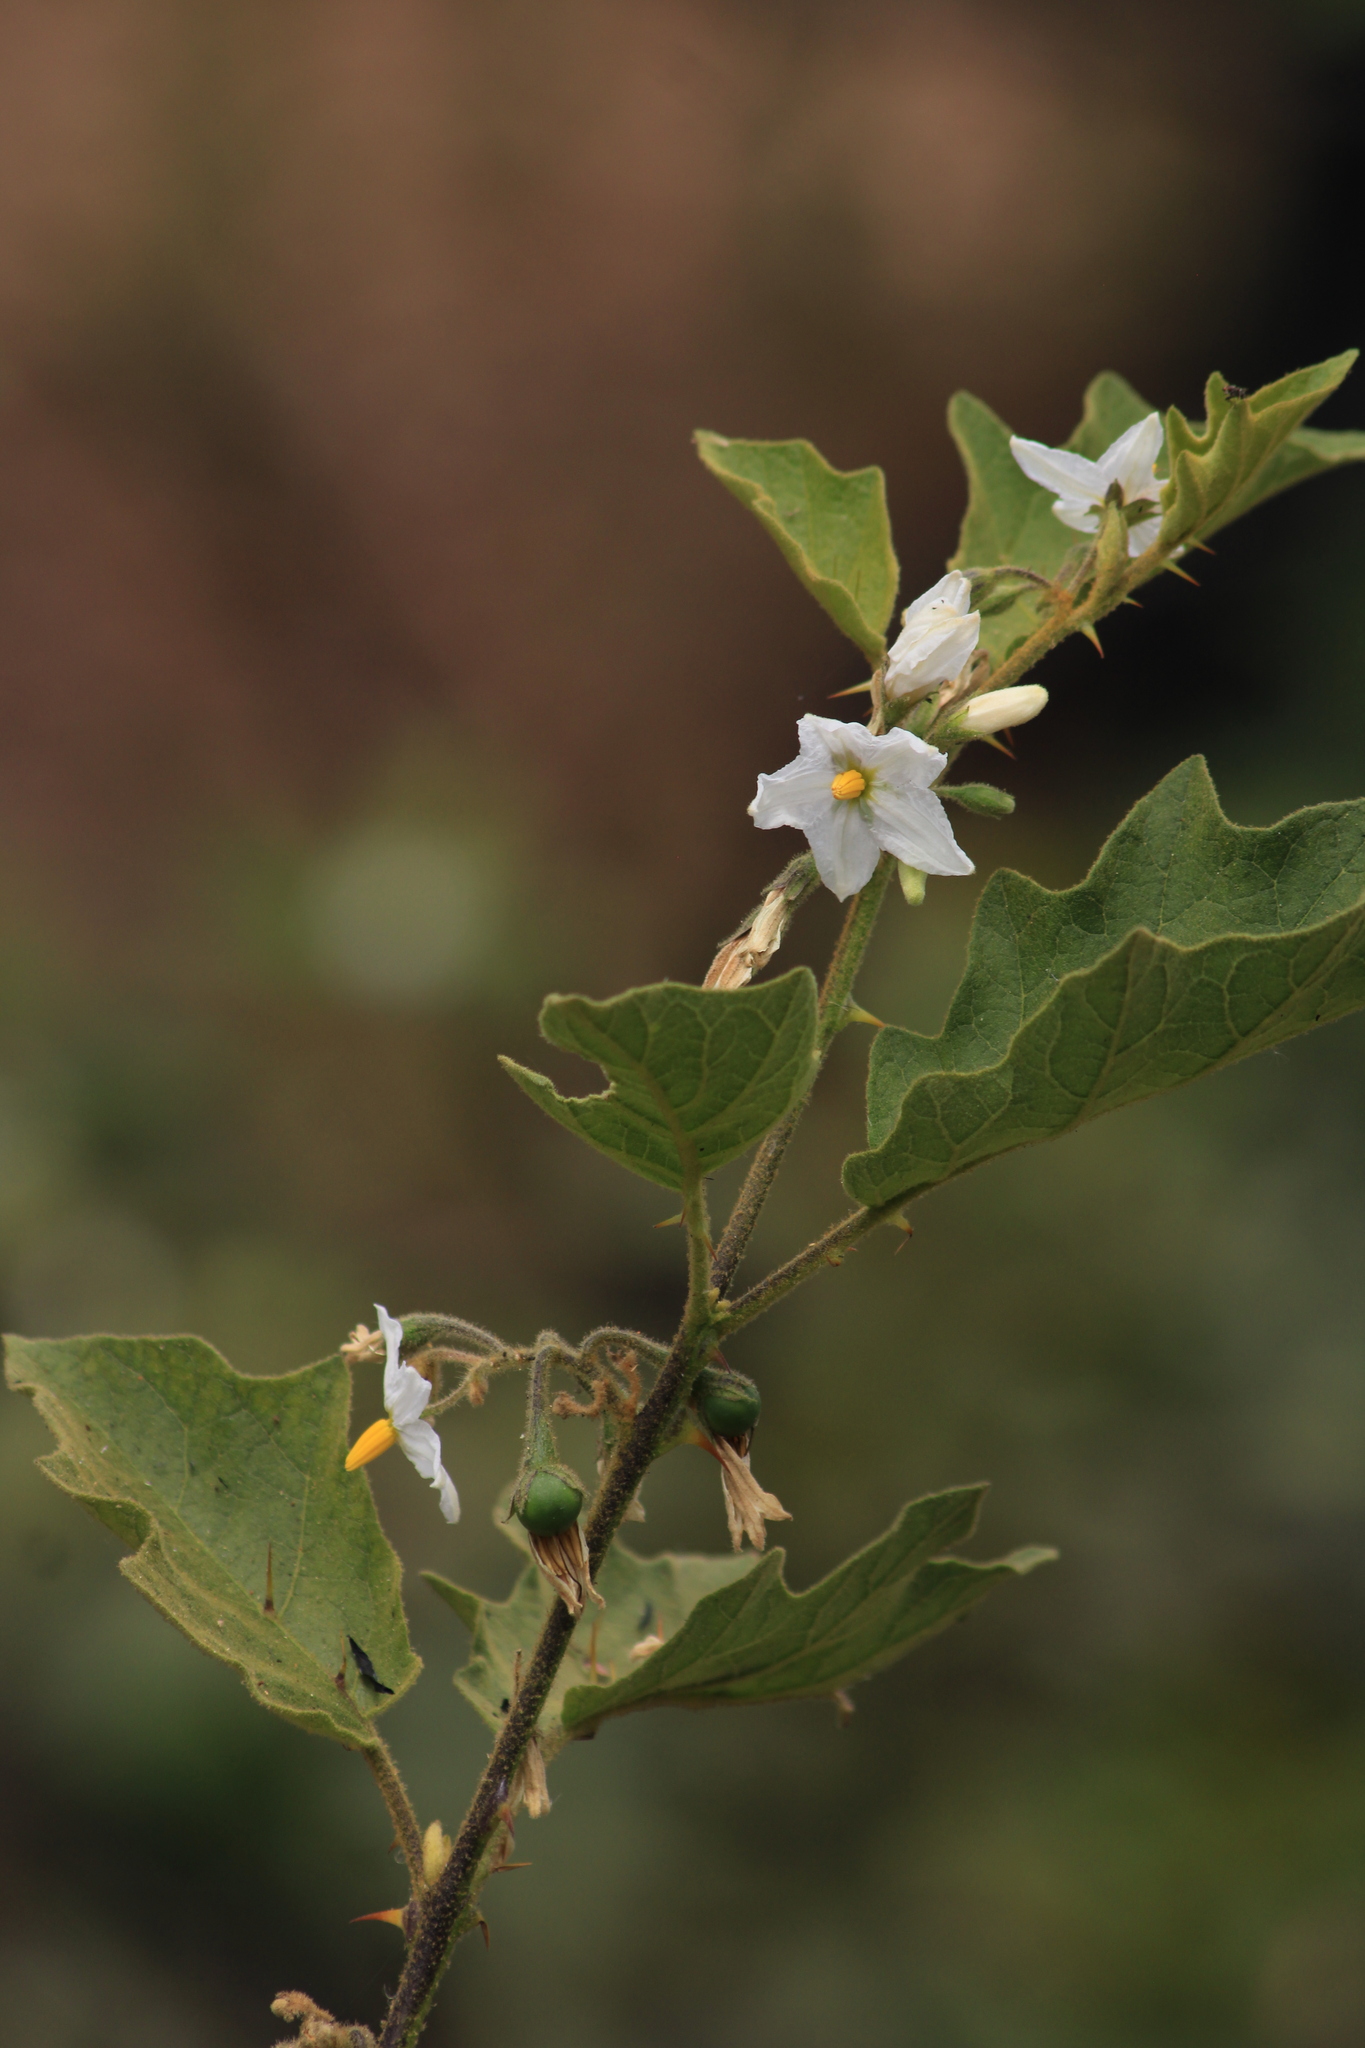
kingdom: Plantae
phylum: Tracheophyta
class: Magnoliopsida
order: Solanales
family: Solanaceae
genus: Solanum
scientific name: Solanum ferrugineum
